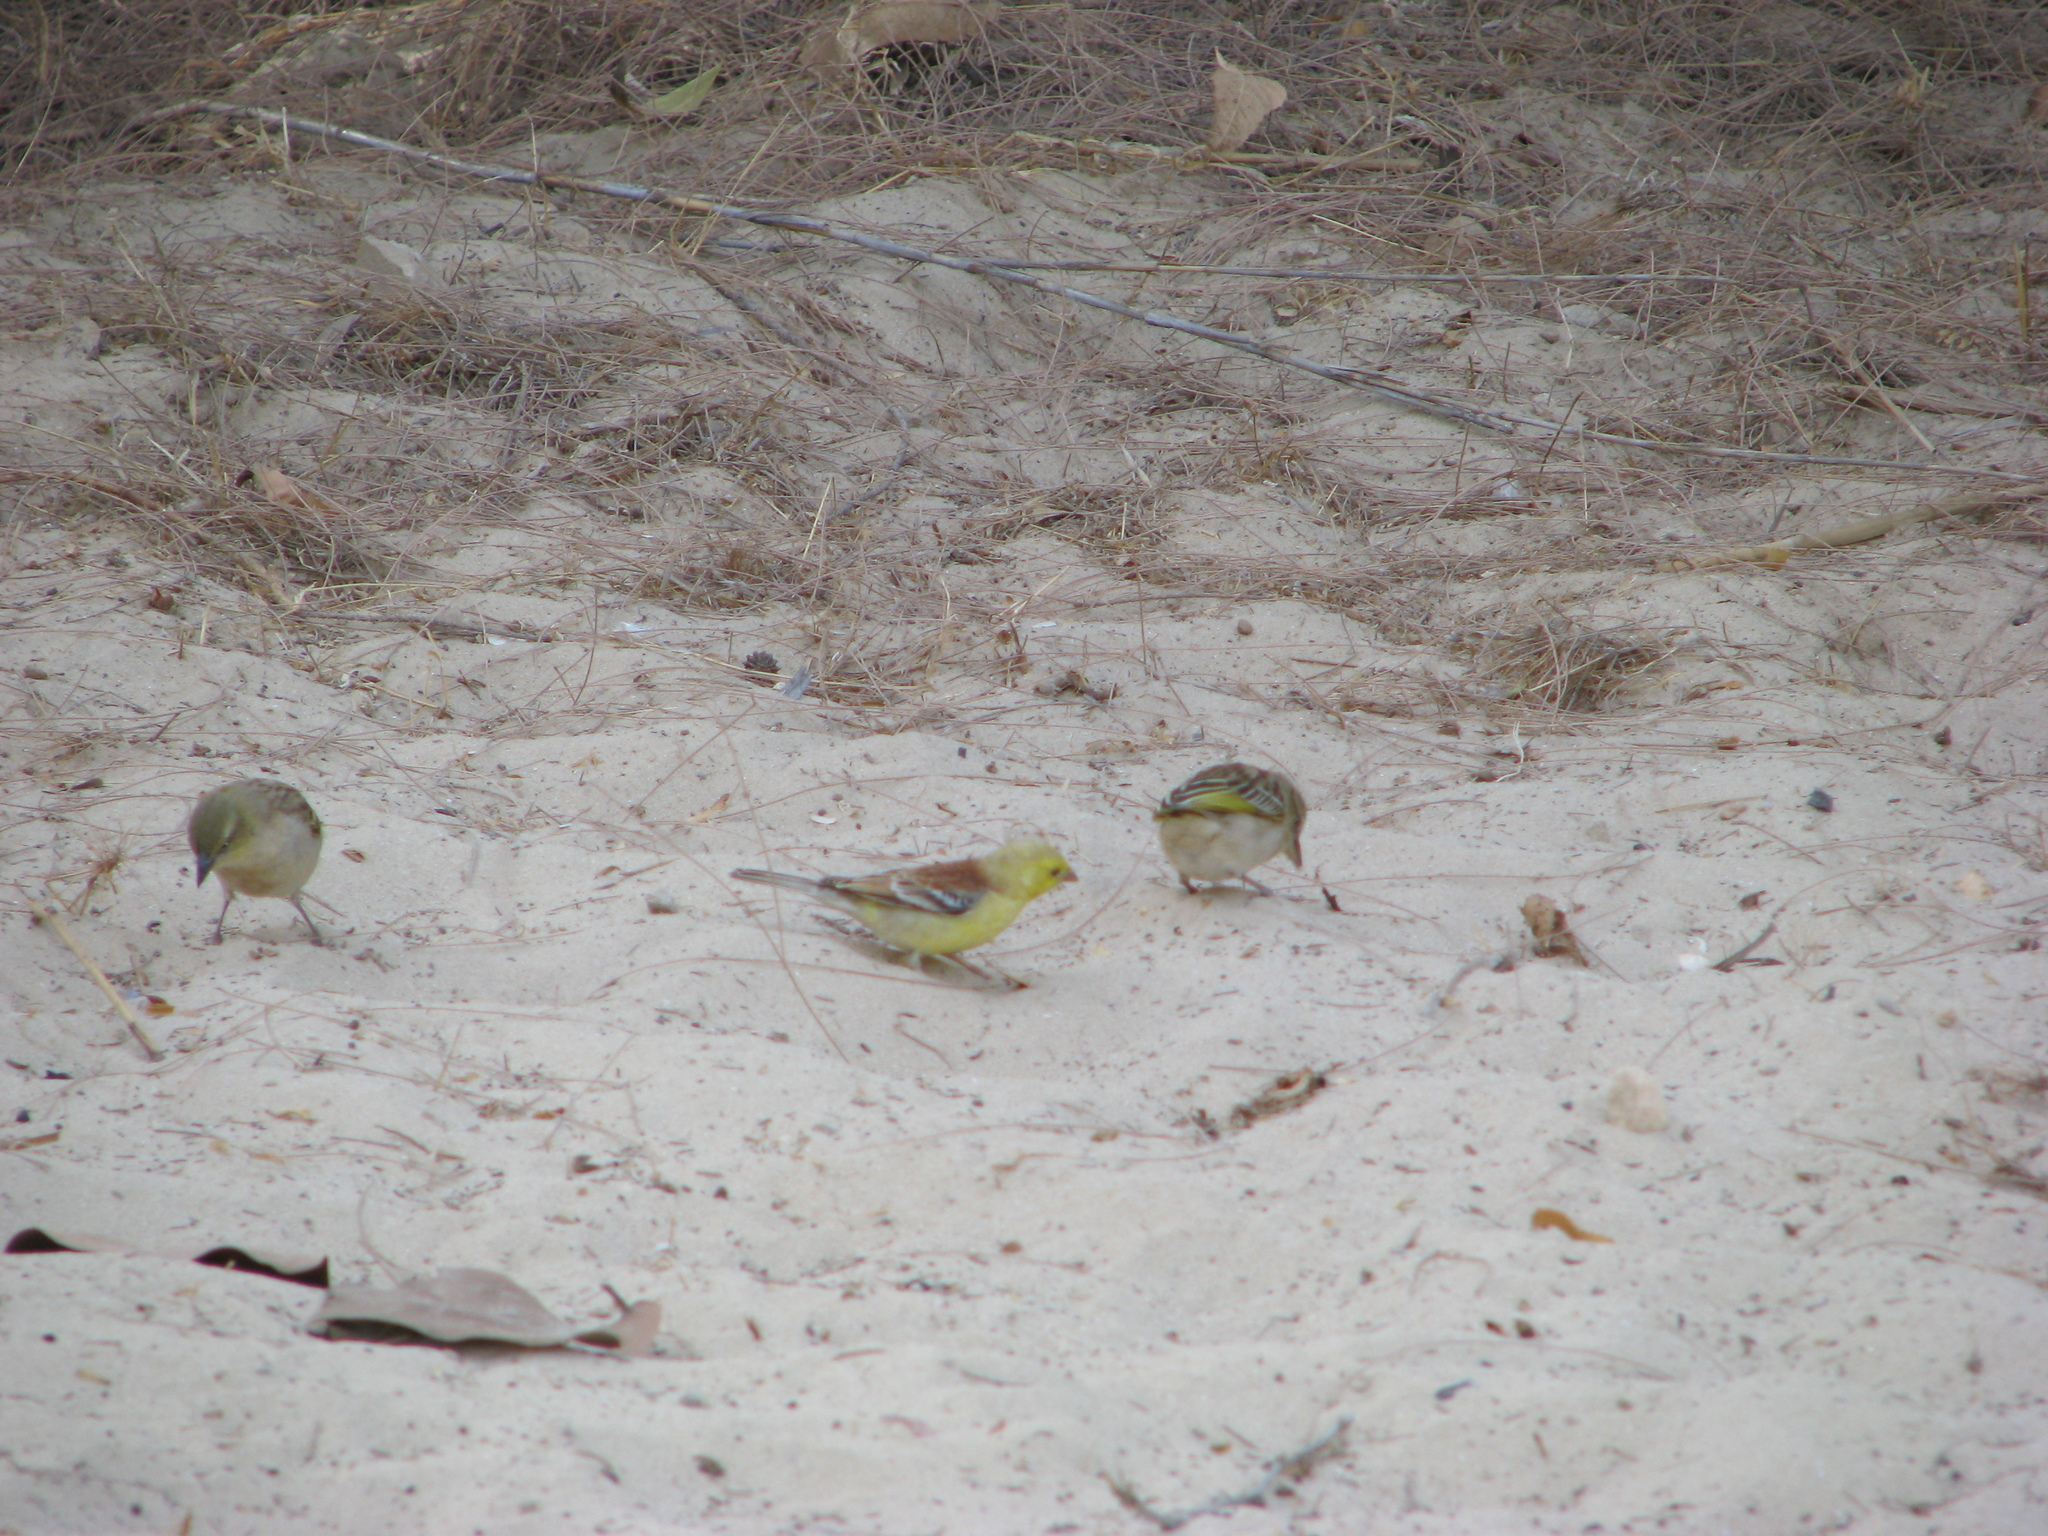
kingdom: Animalia
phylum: Chordata
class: Aves
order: Passeriformes
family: Passeridae
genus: Passer
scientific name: Passer luteus
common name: Sudan golden sparrow
